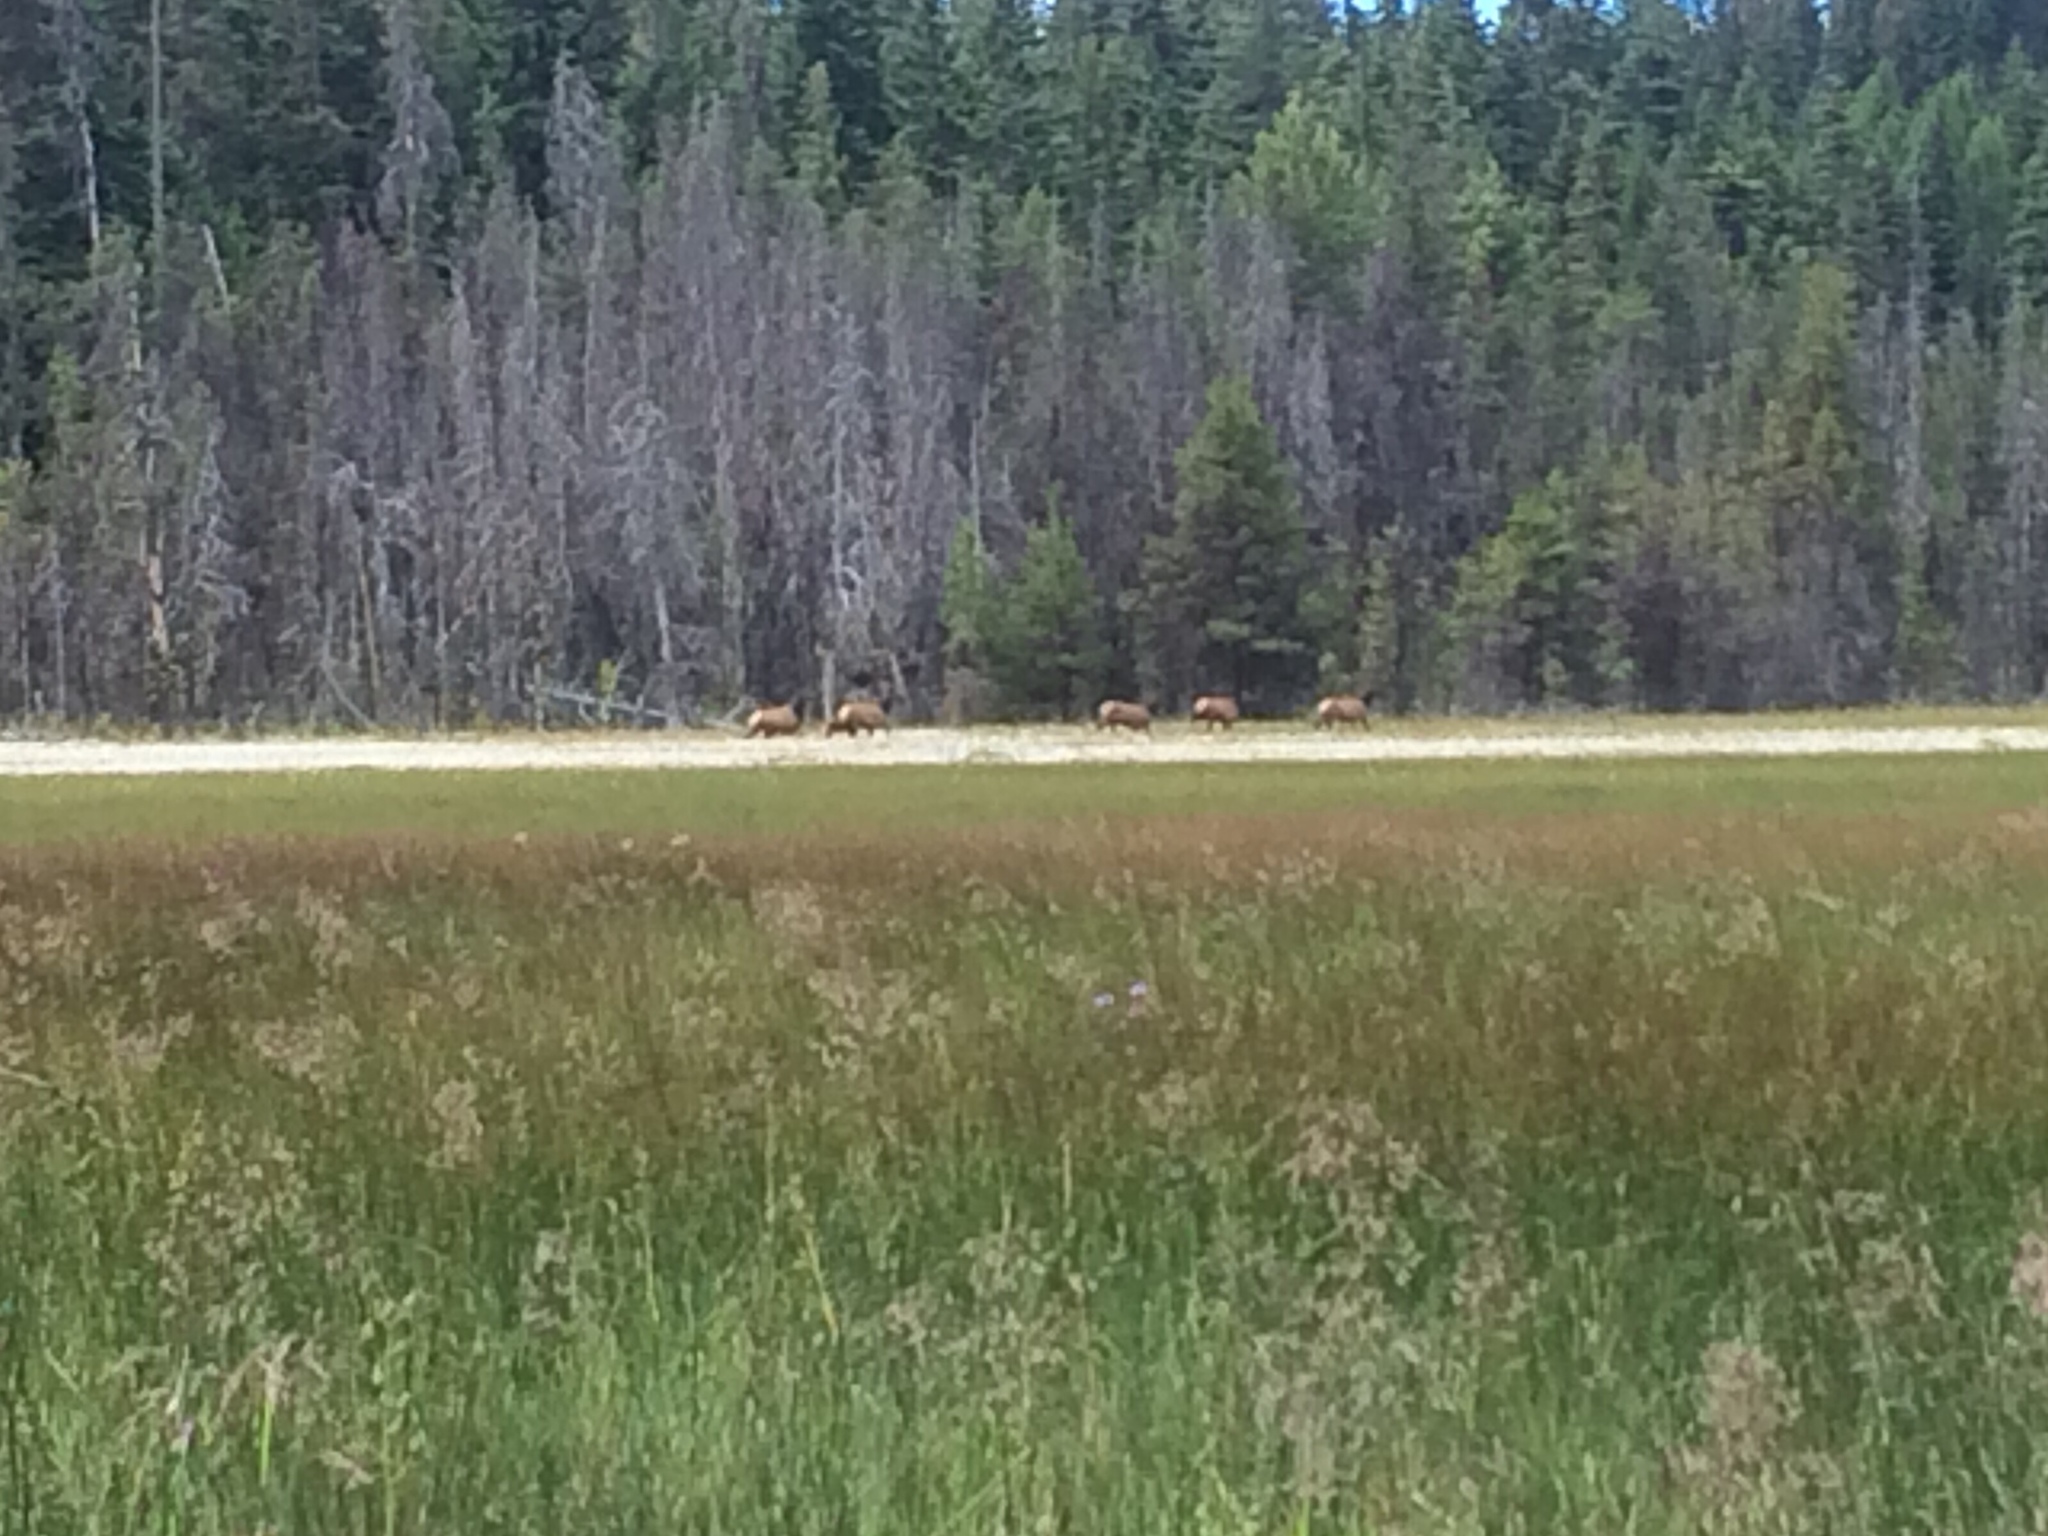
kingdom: Animalia
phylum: Chordata
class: Mammalia
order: Artiodactyla
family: Cervidae
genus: Cervus
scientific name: Cervus elaphus
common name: Red deer
